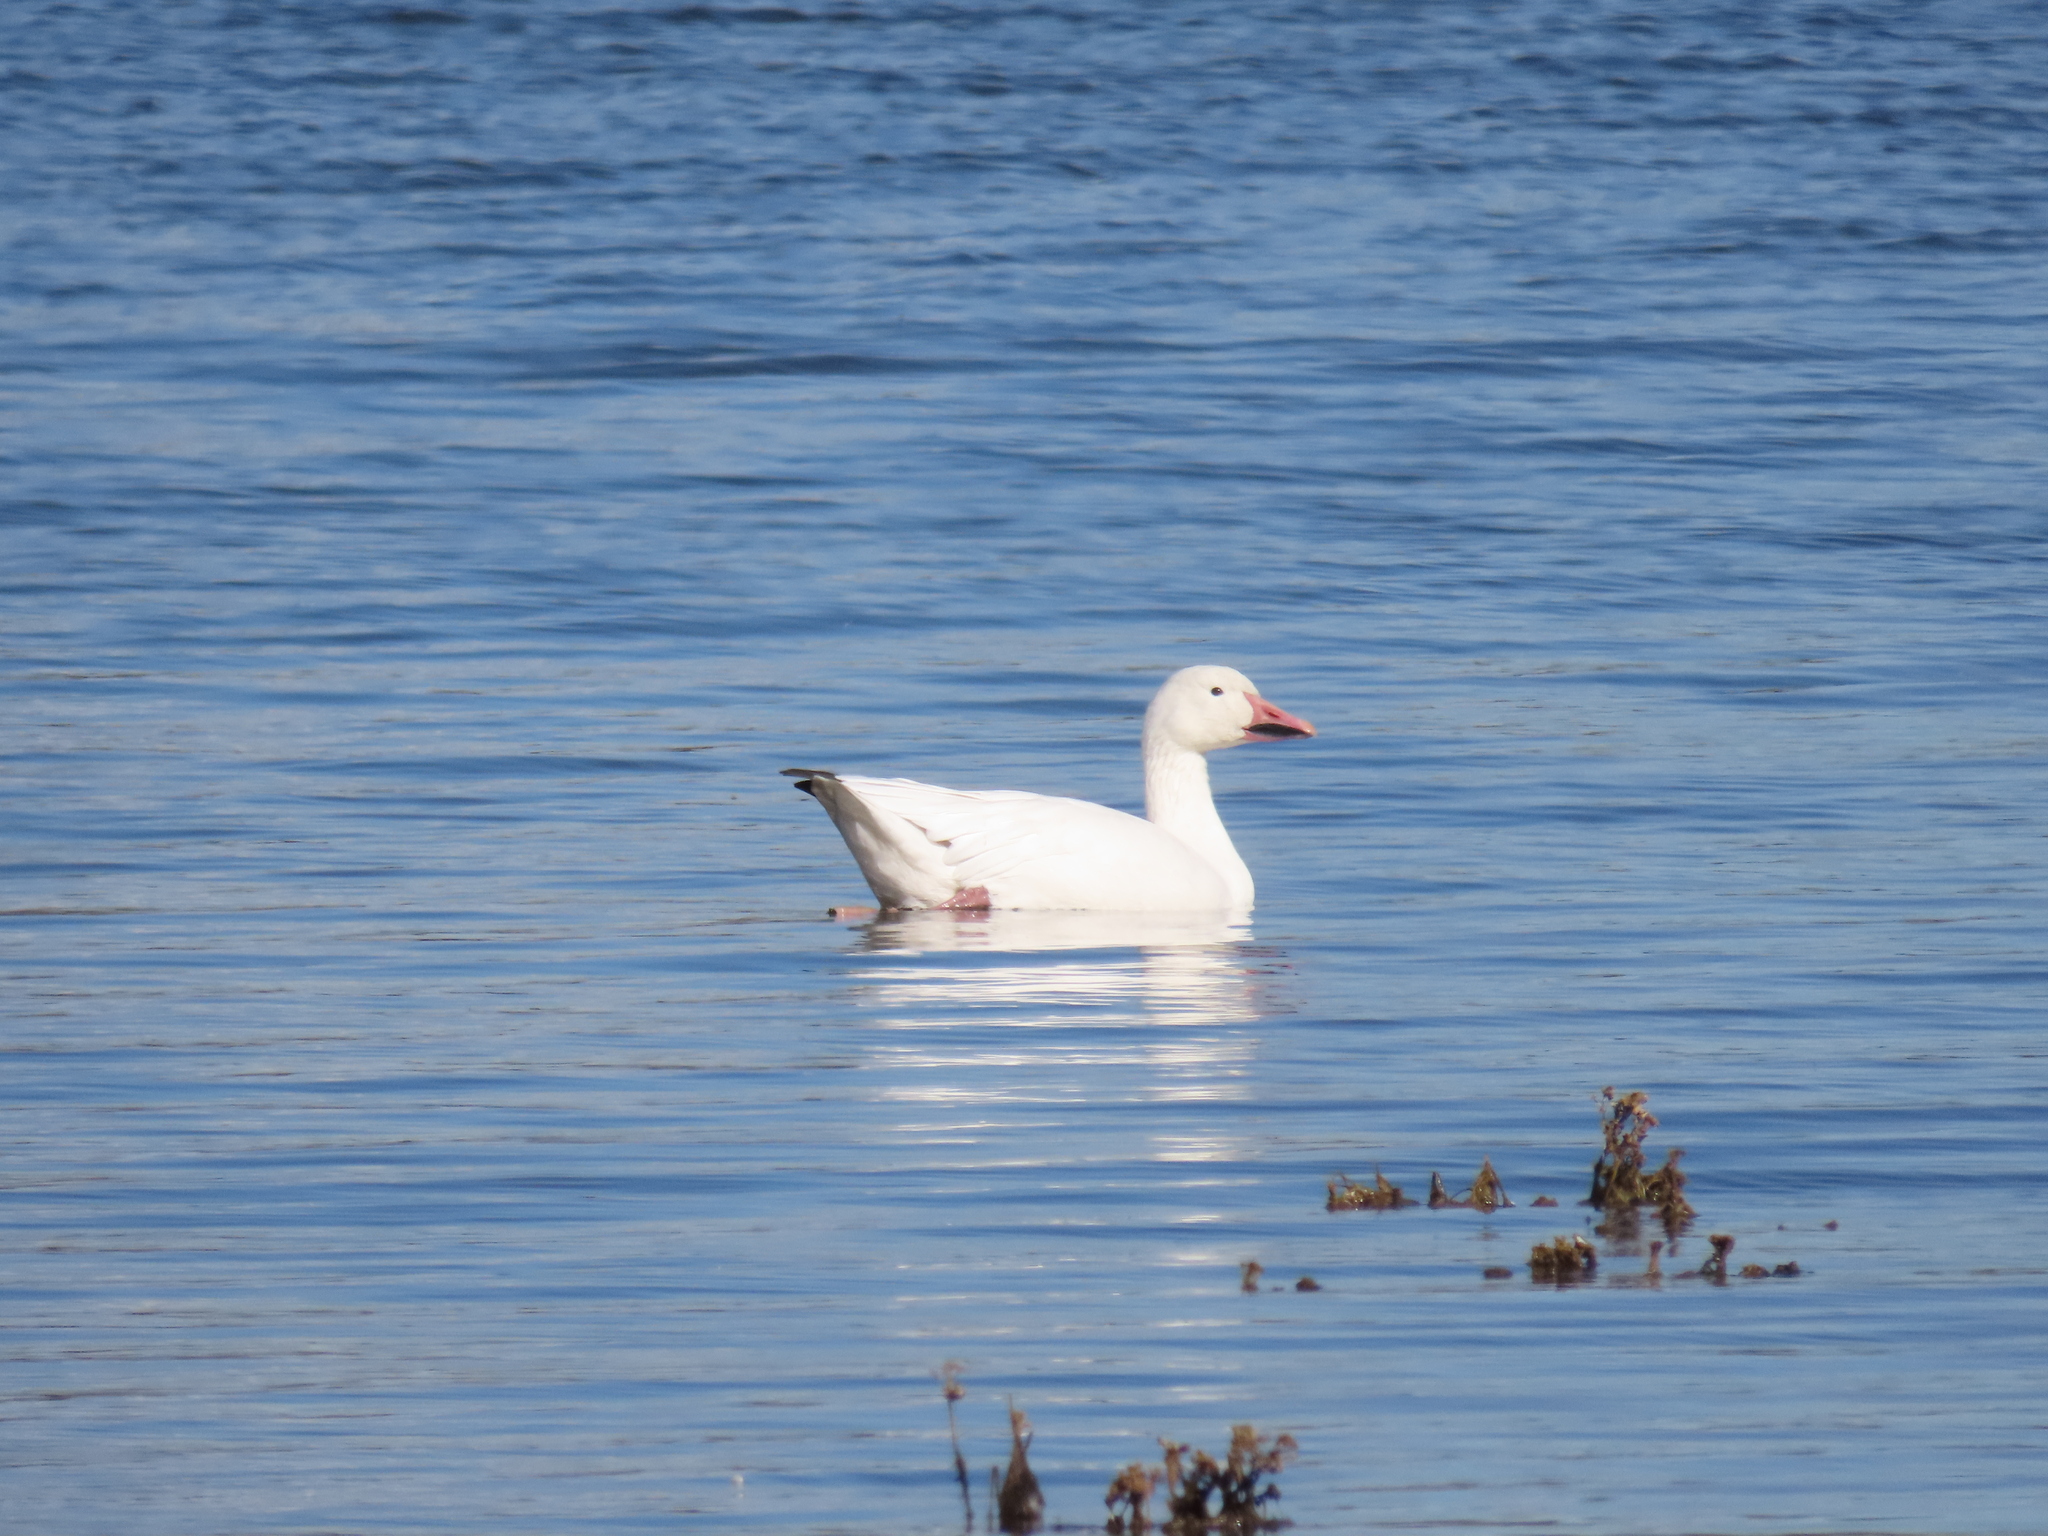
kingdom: Animalia
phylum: Chordata
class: Aves
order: Anseriformes
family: Anatidae
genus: Anser
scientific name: Anser caerulescens
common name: Snow goose
